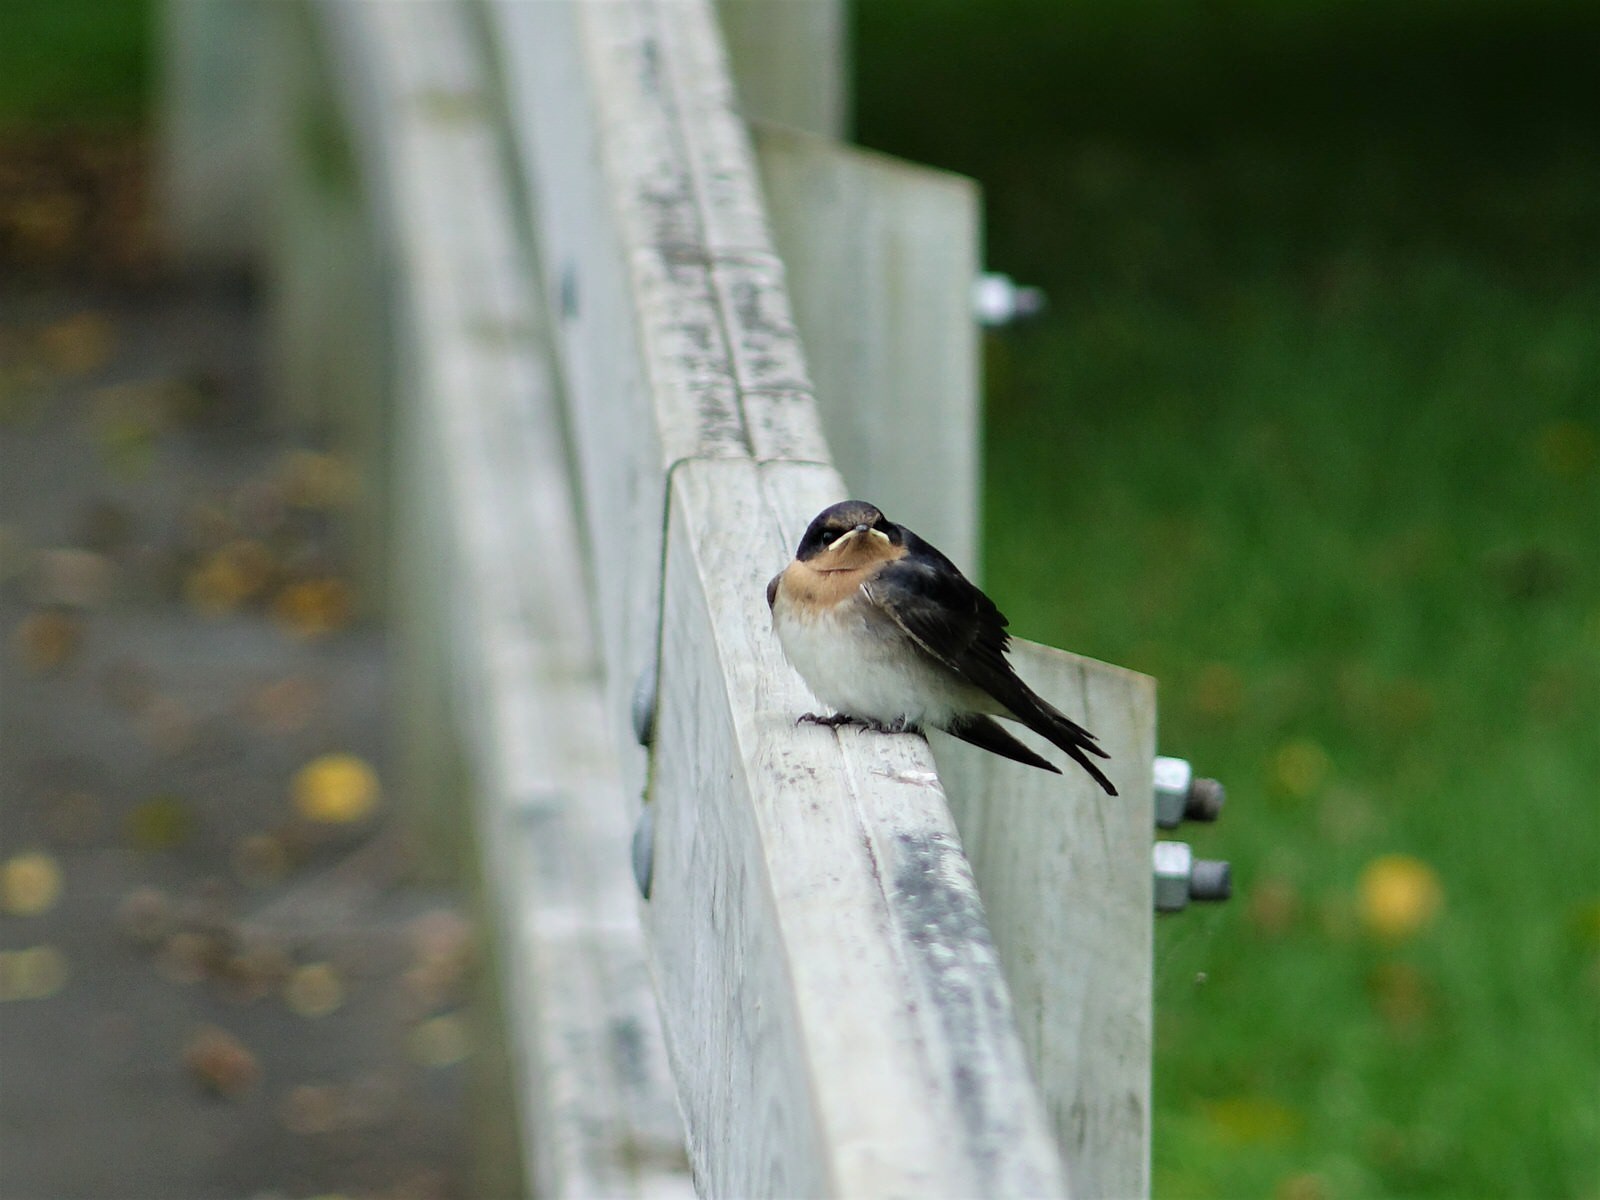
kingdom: Animalia
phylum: Chordata
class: Aves
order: Passeriformes
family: Hirundinidae
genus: Hirundo
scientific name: Hirundo neoxena
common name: Welcome swallow
